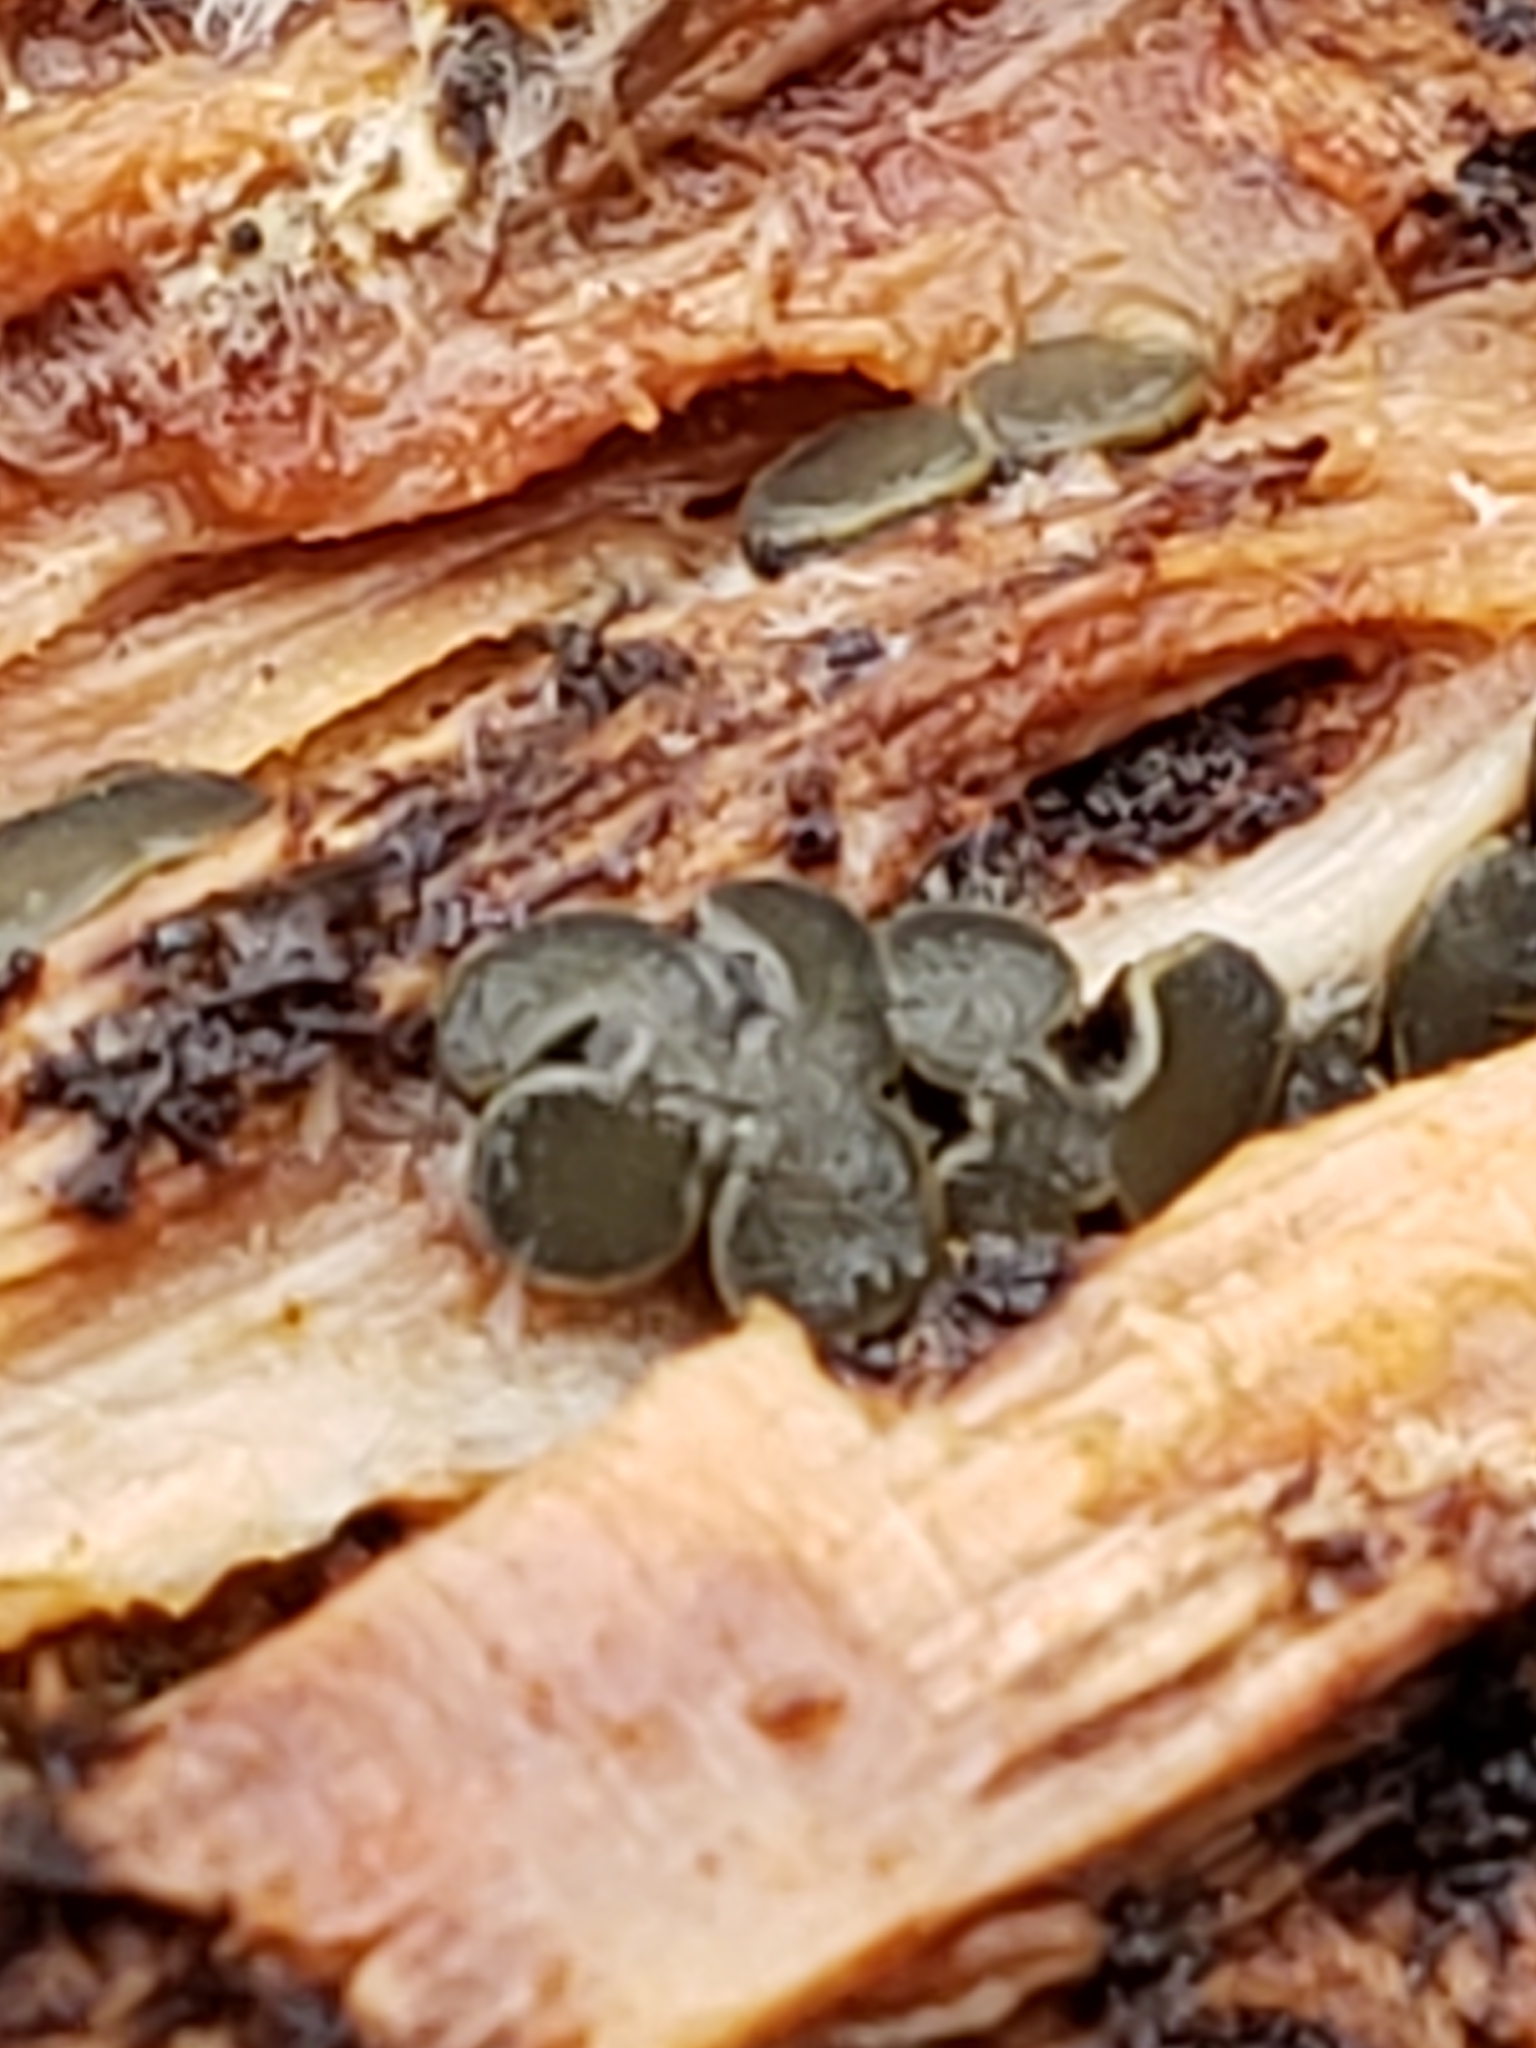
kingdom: Fungi
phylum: Ascomycota
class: Leotiomycetes
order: Helotiales
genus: Angelina
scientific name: Angelina rufescens
